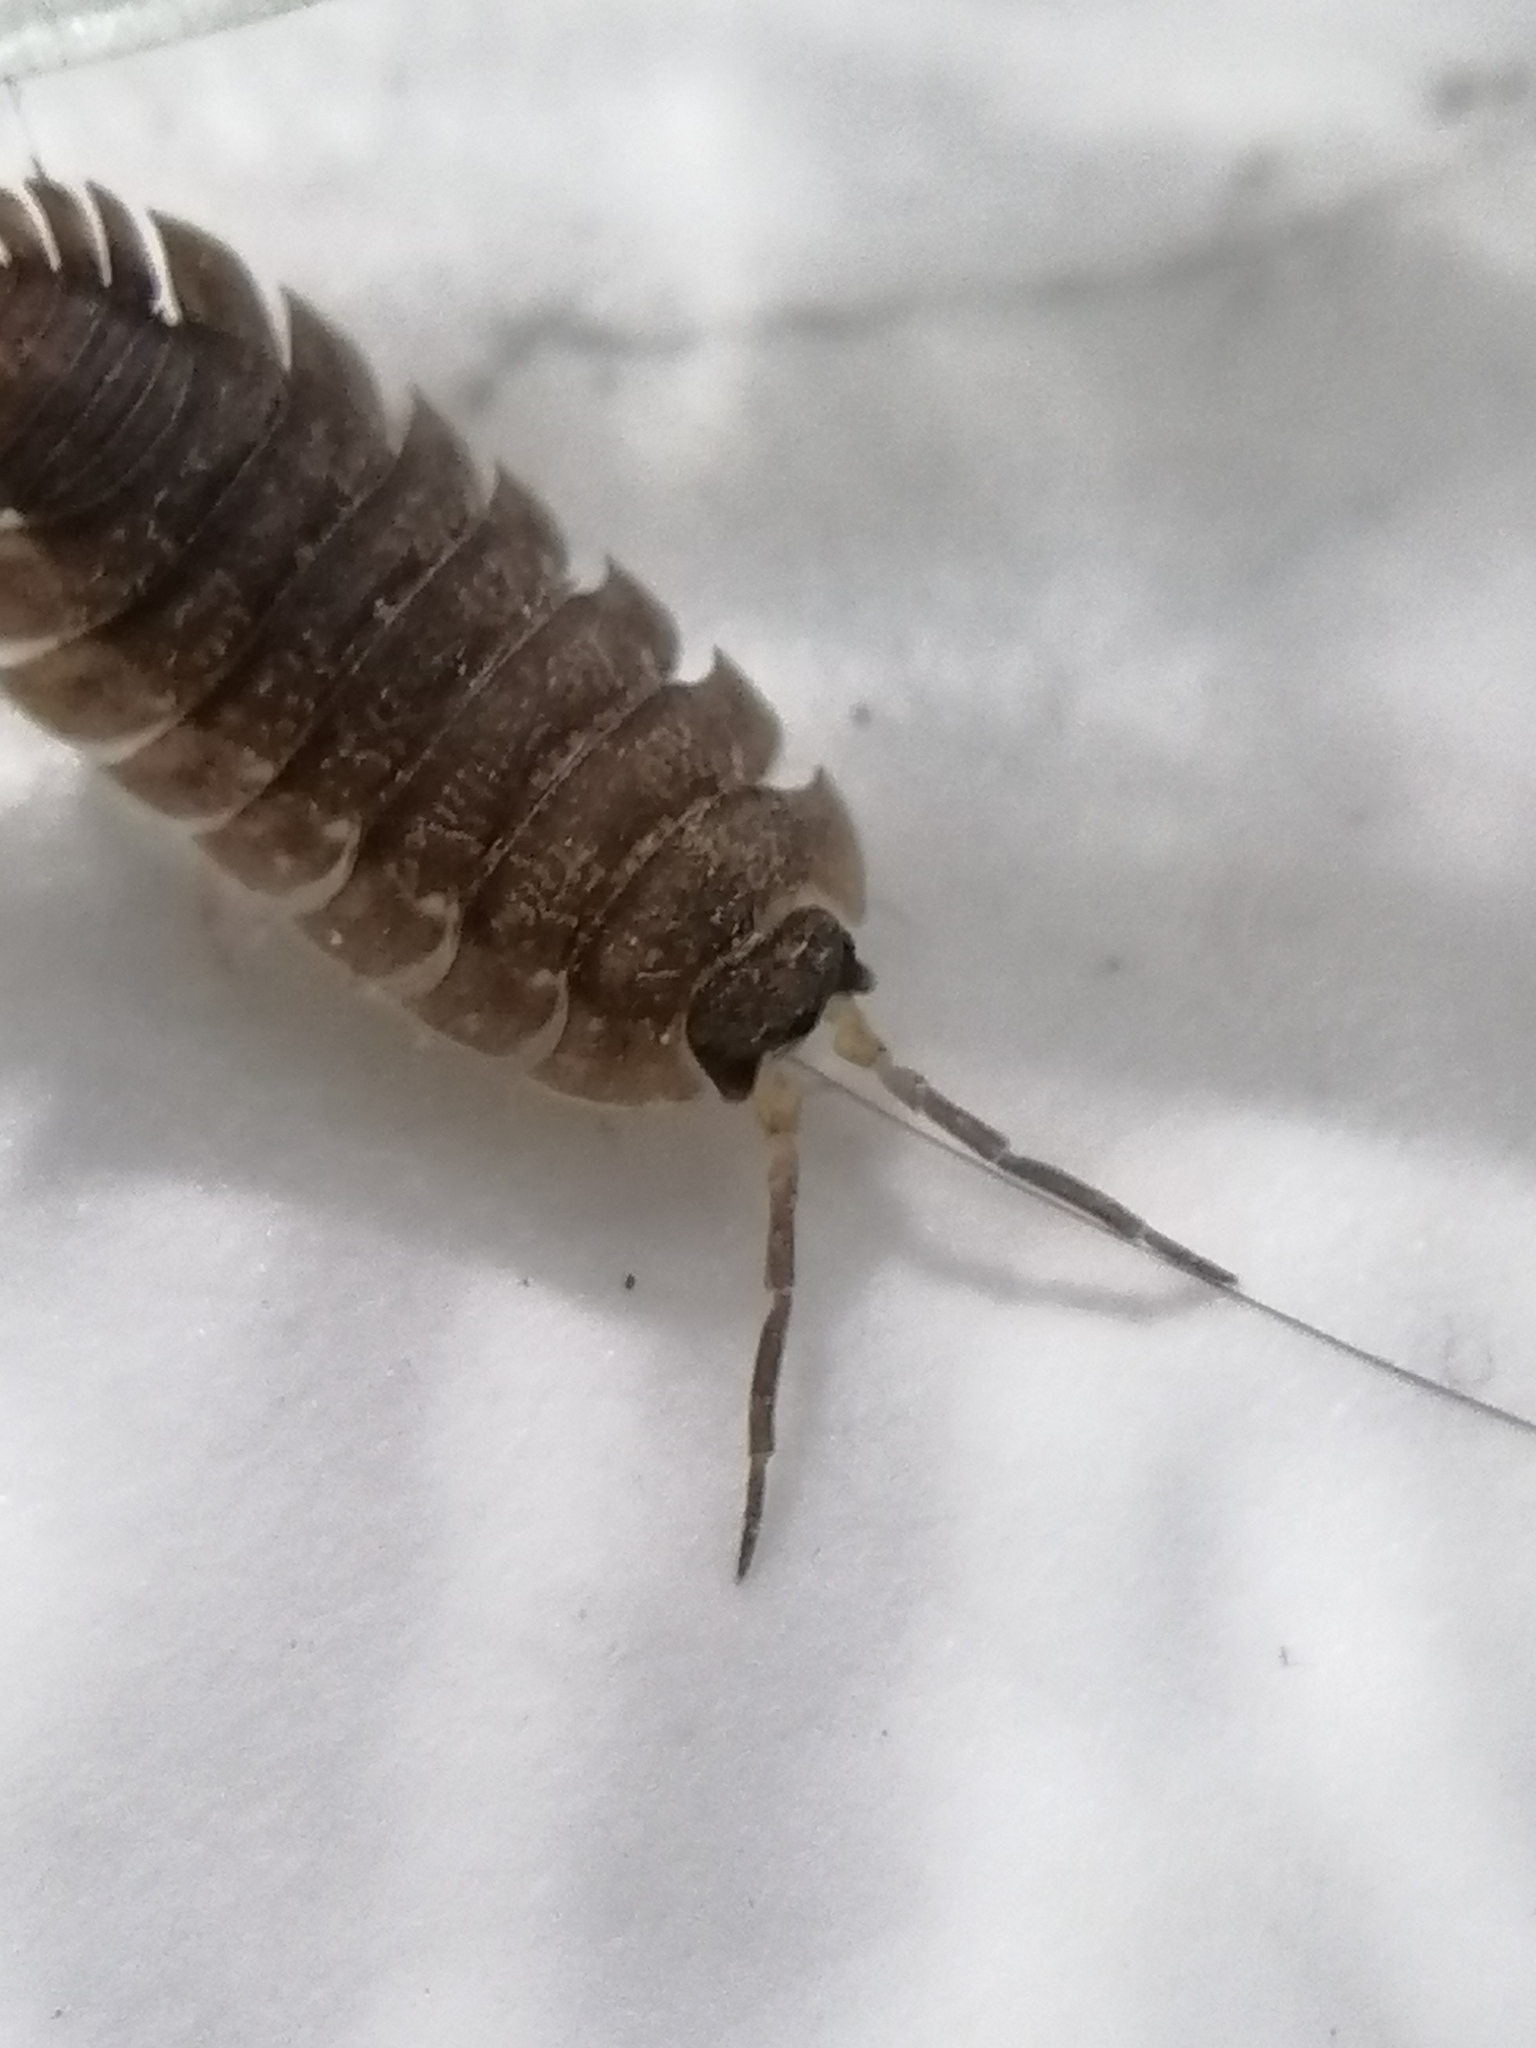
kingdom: Animalia
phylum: Arthropoda
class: Malacostraca
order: Isopoda
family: Porcellionidae
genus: Porcellio
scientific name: Porcellio scaber
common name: Common rough woodlouse
